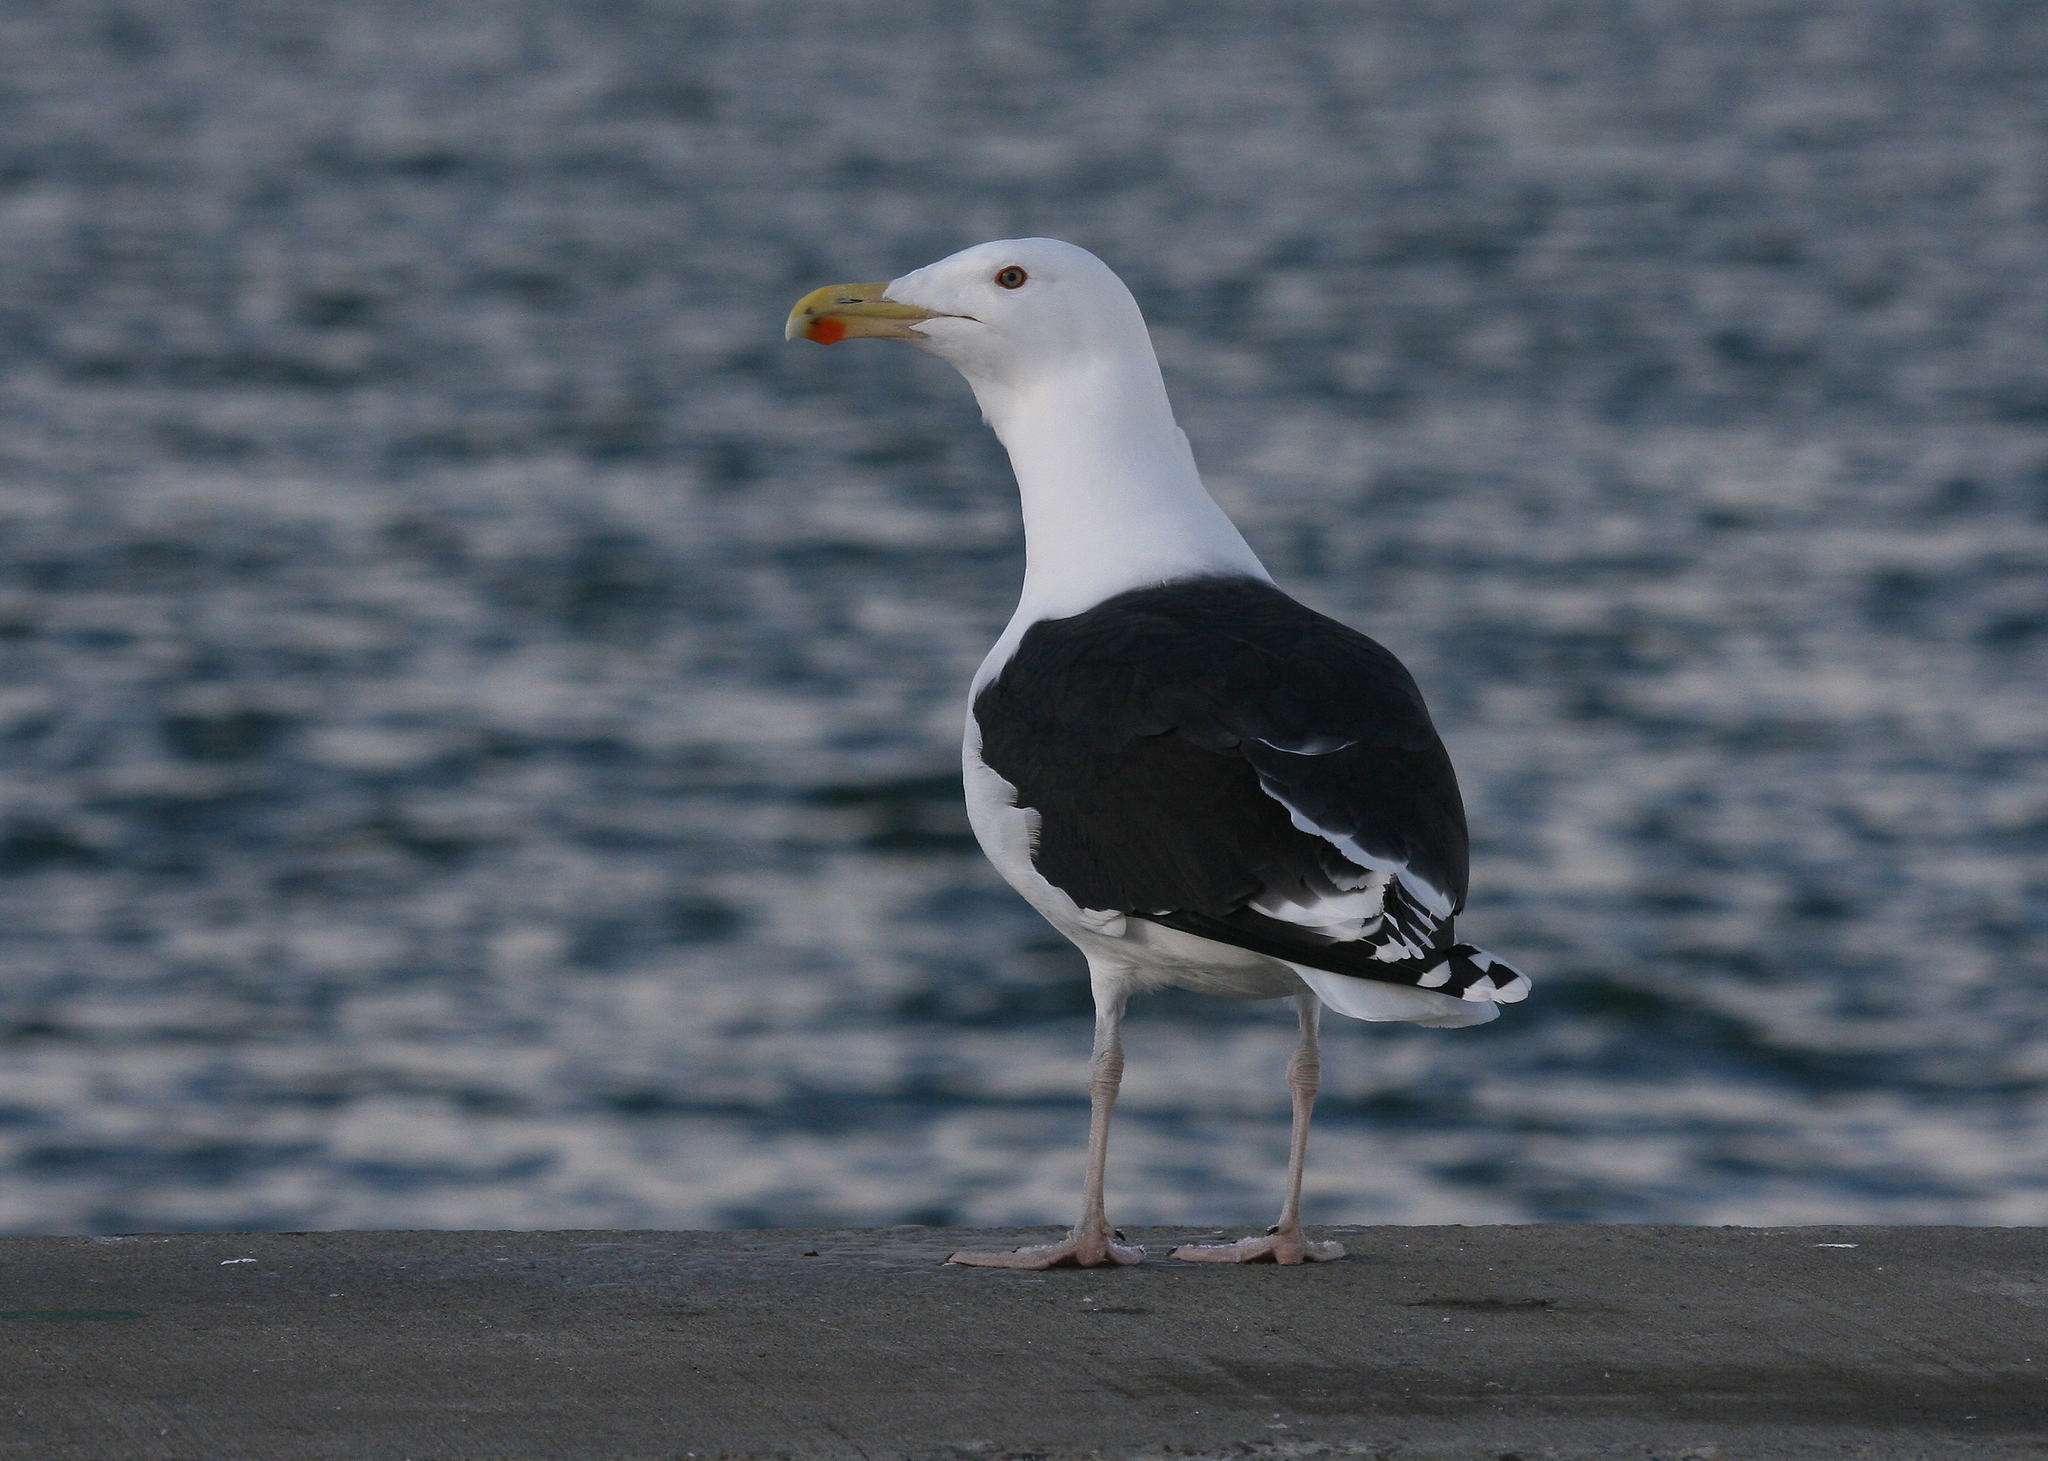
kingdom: Animalia
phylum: Chordata
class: Aves
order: Charadriiformes
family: Laridae
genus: Larus
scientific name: Larus marinus
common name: Great black-backed gull
